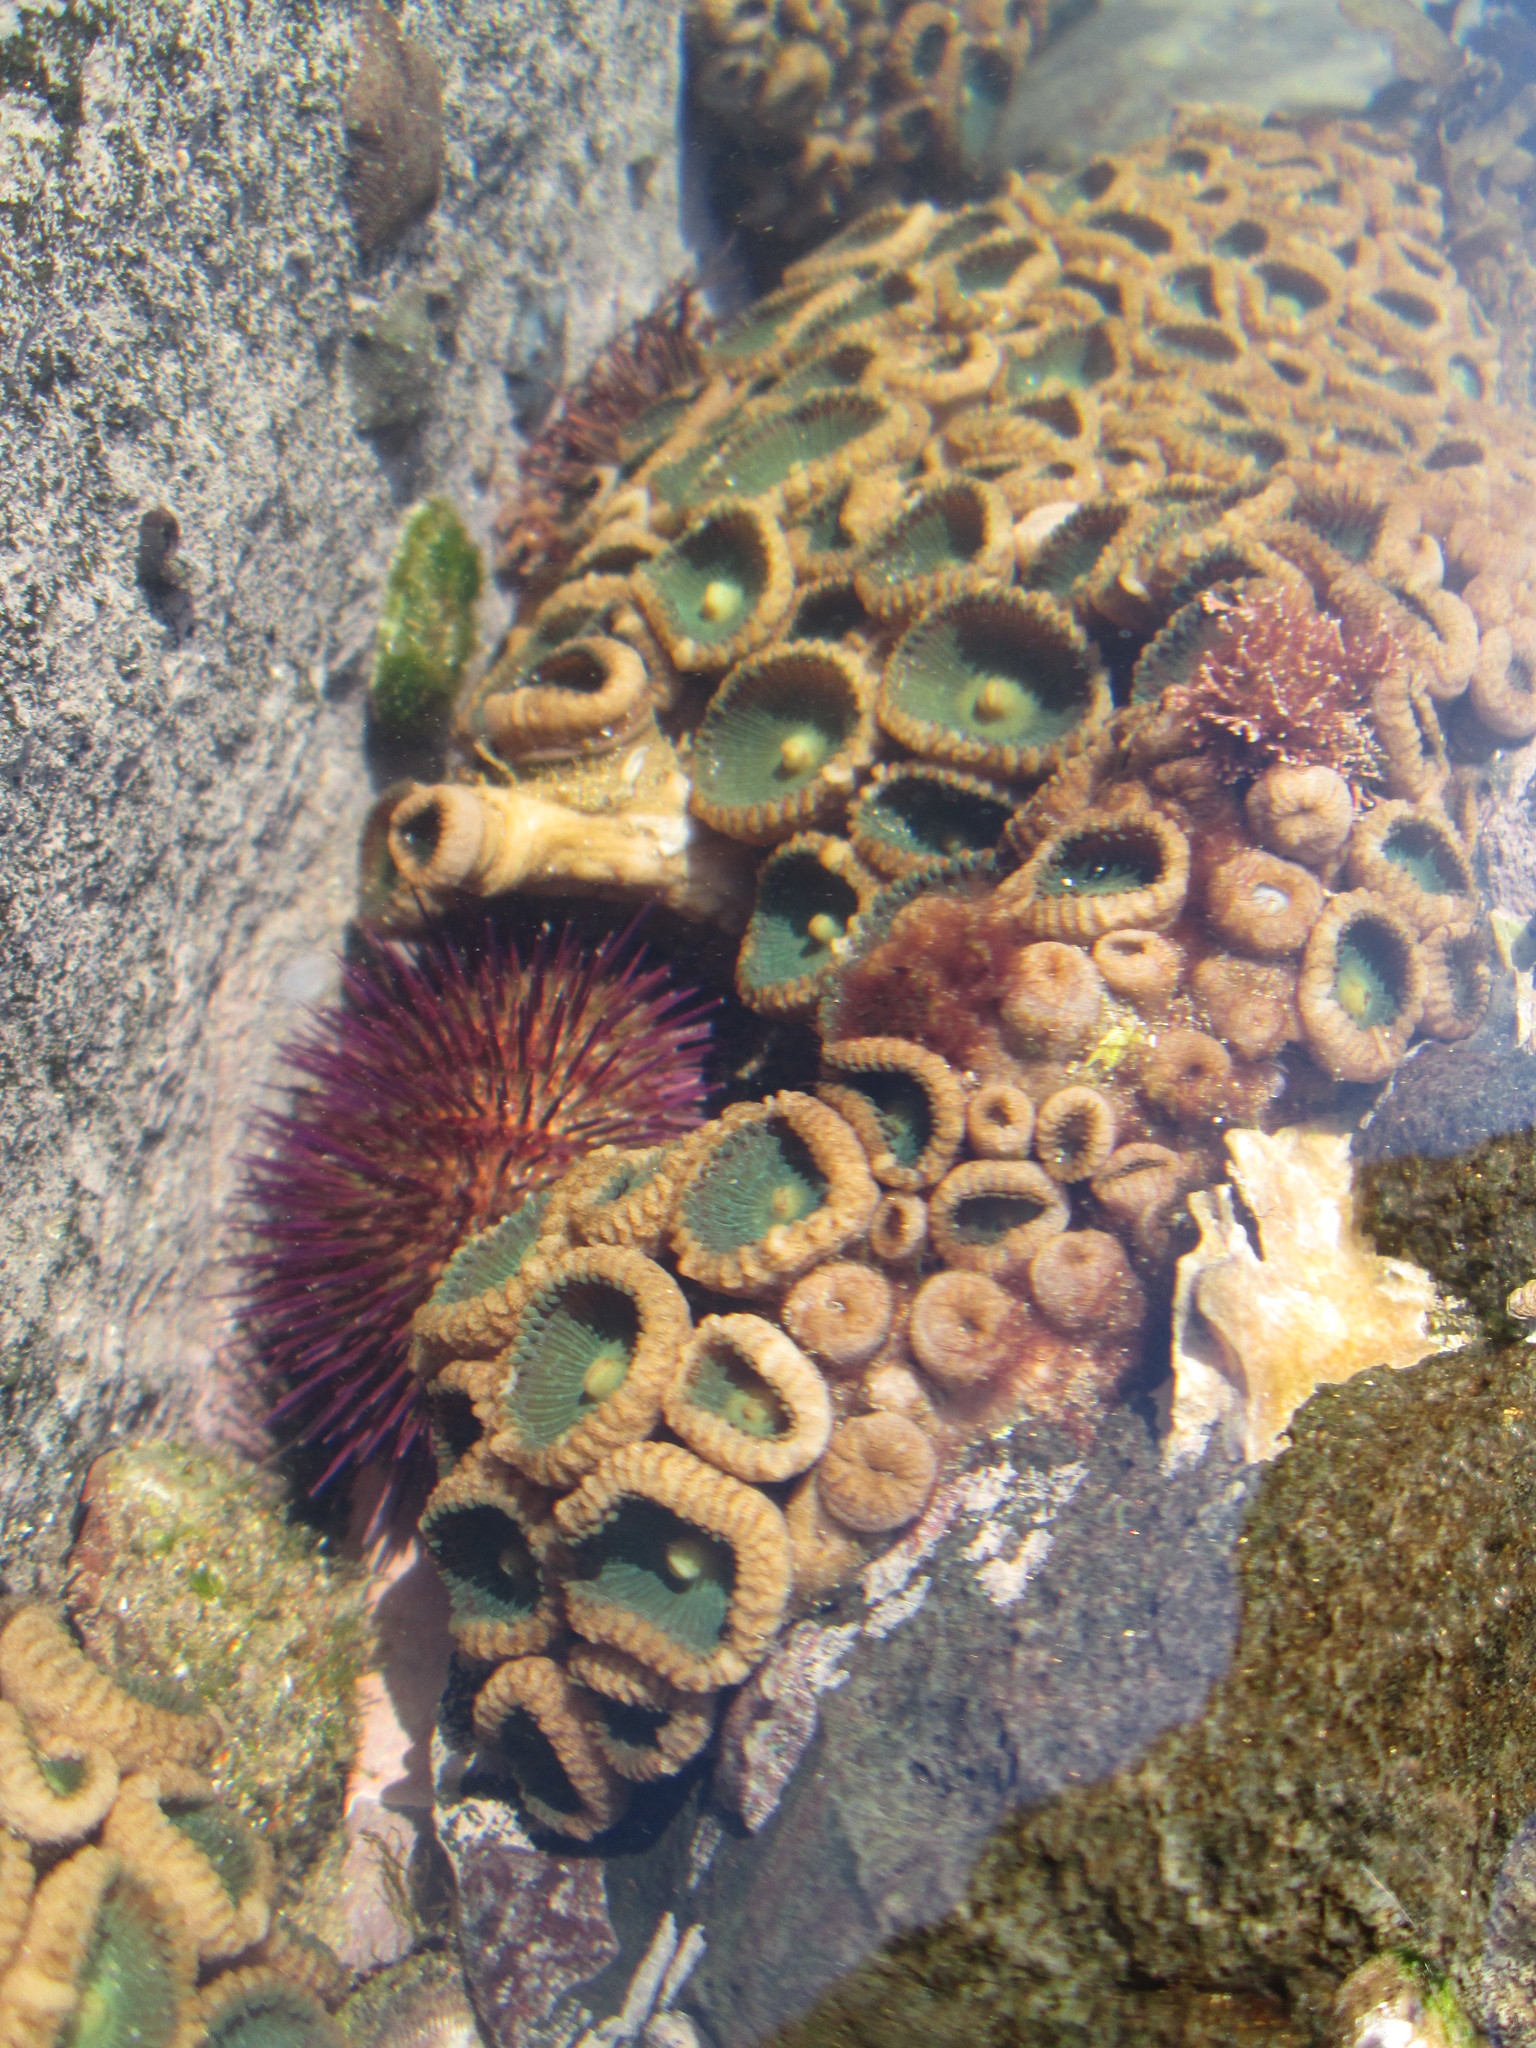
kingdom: Animalia
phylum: Echinodermata
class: Echinoidea
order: Camarodonta
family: Parechinidae
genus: Parechinus
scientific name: Parechinus angulosus
